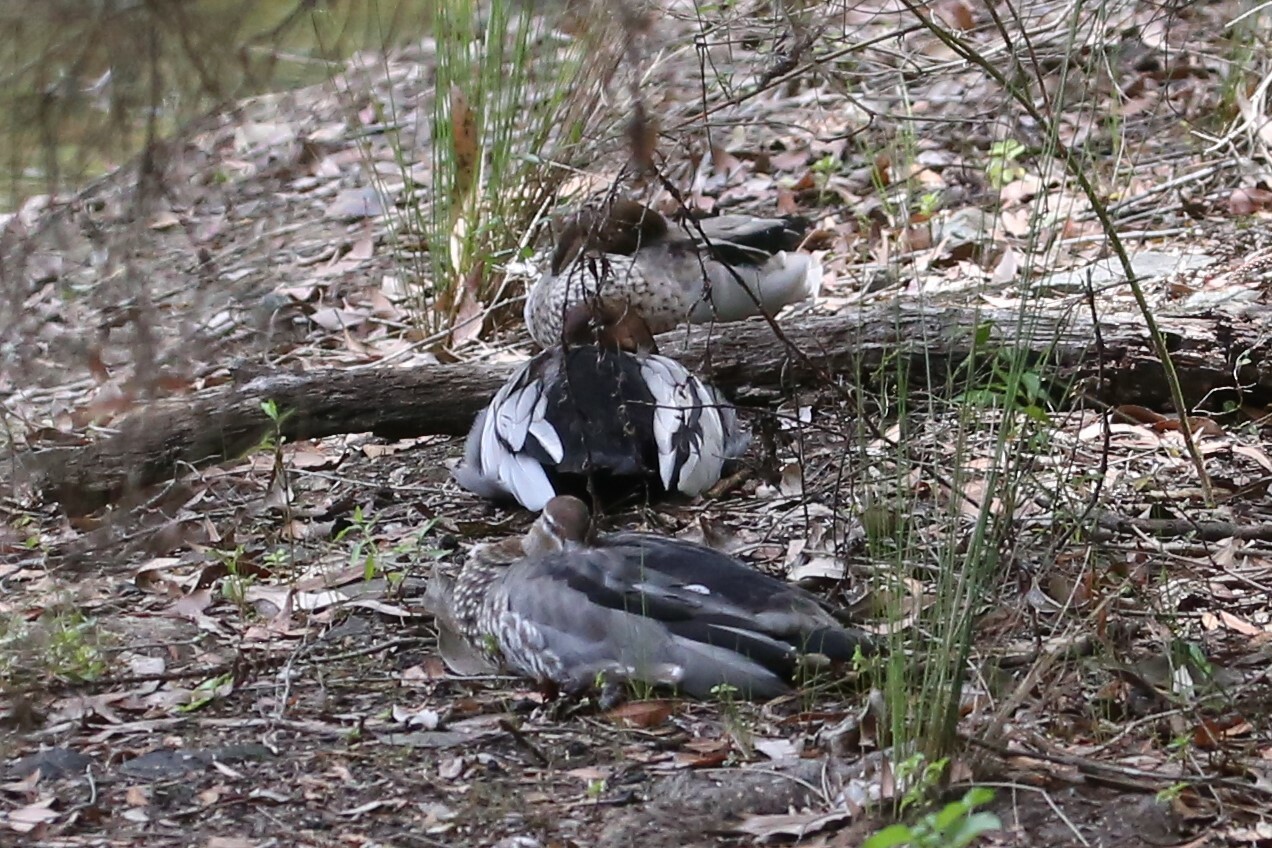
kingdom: Animalia
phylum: Chordata
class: Aves
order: Anseriformes
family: Anatidae
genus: Chenonetta
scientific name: Chenonetta jubata
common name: Maned duck
